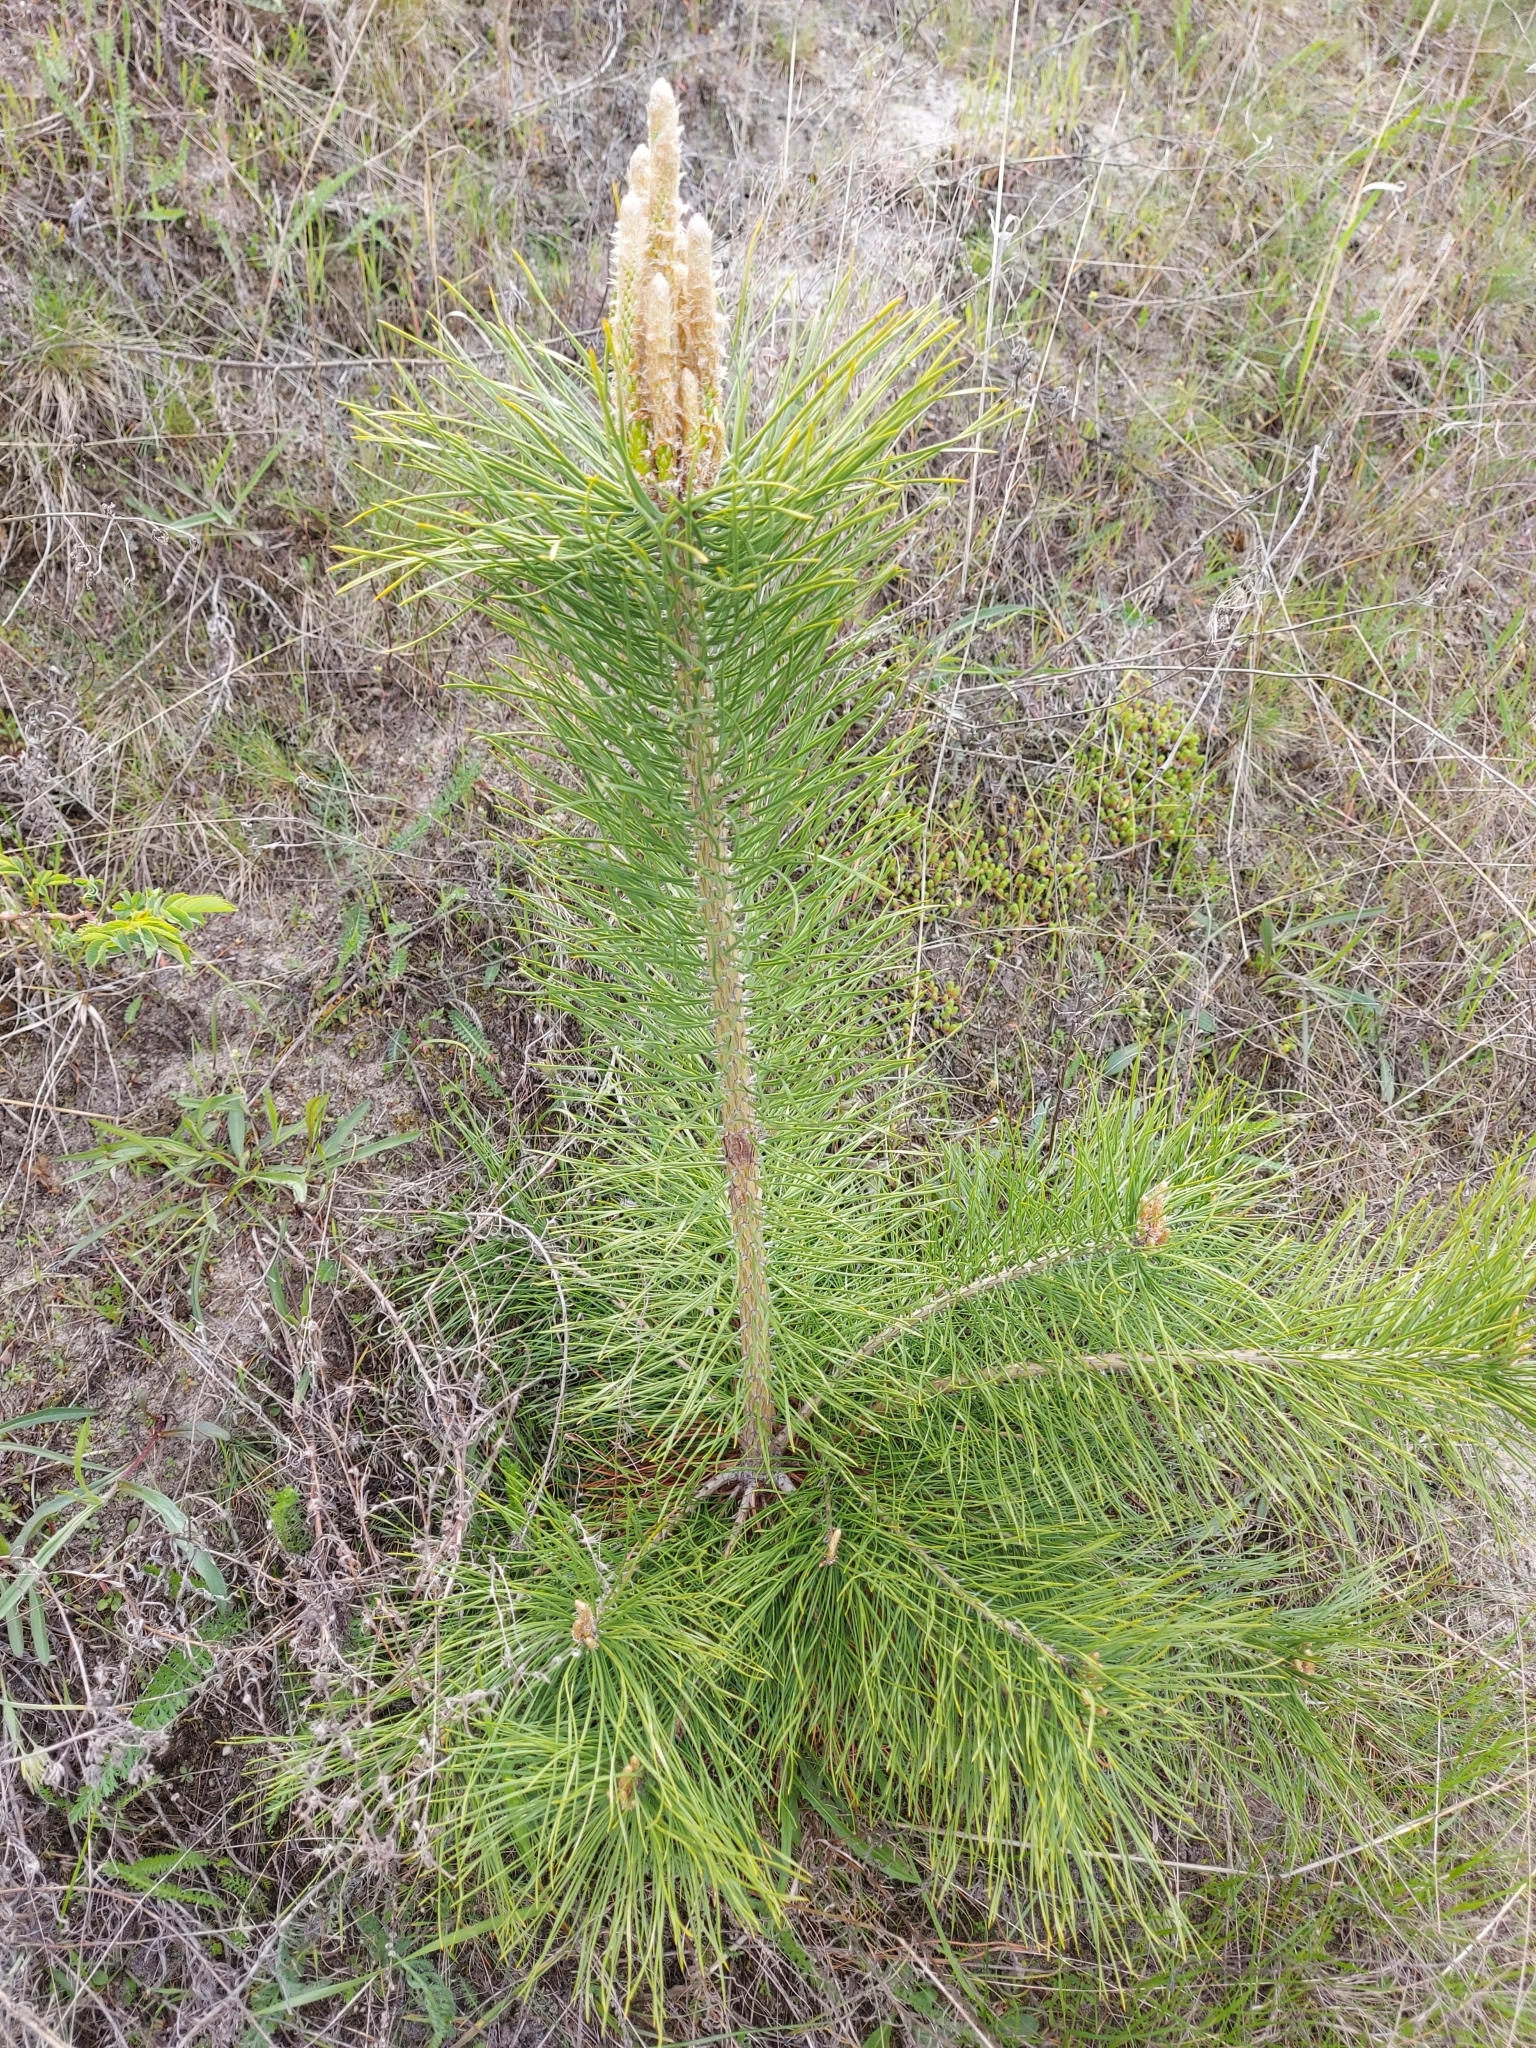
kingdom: Plantae
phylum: Tracheophyta
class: Pinopsida
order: Pinales
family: Pinaceae
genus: Pinus
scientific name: Pinus sylvestris
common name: Scots pine
